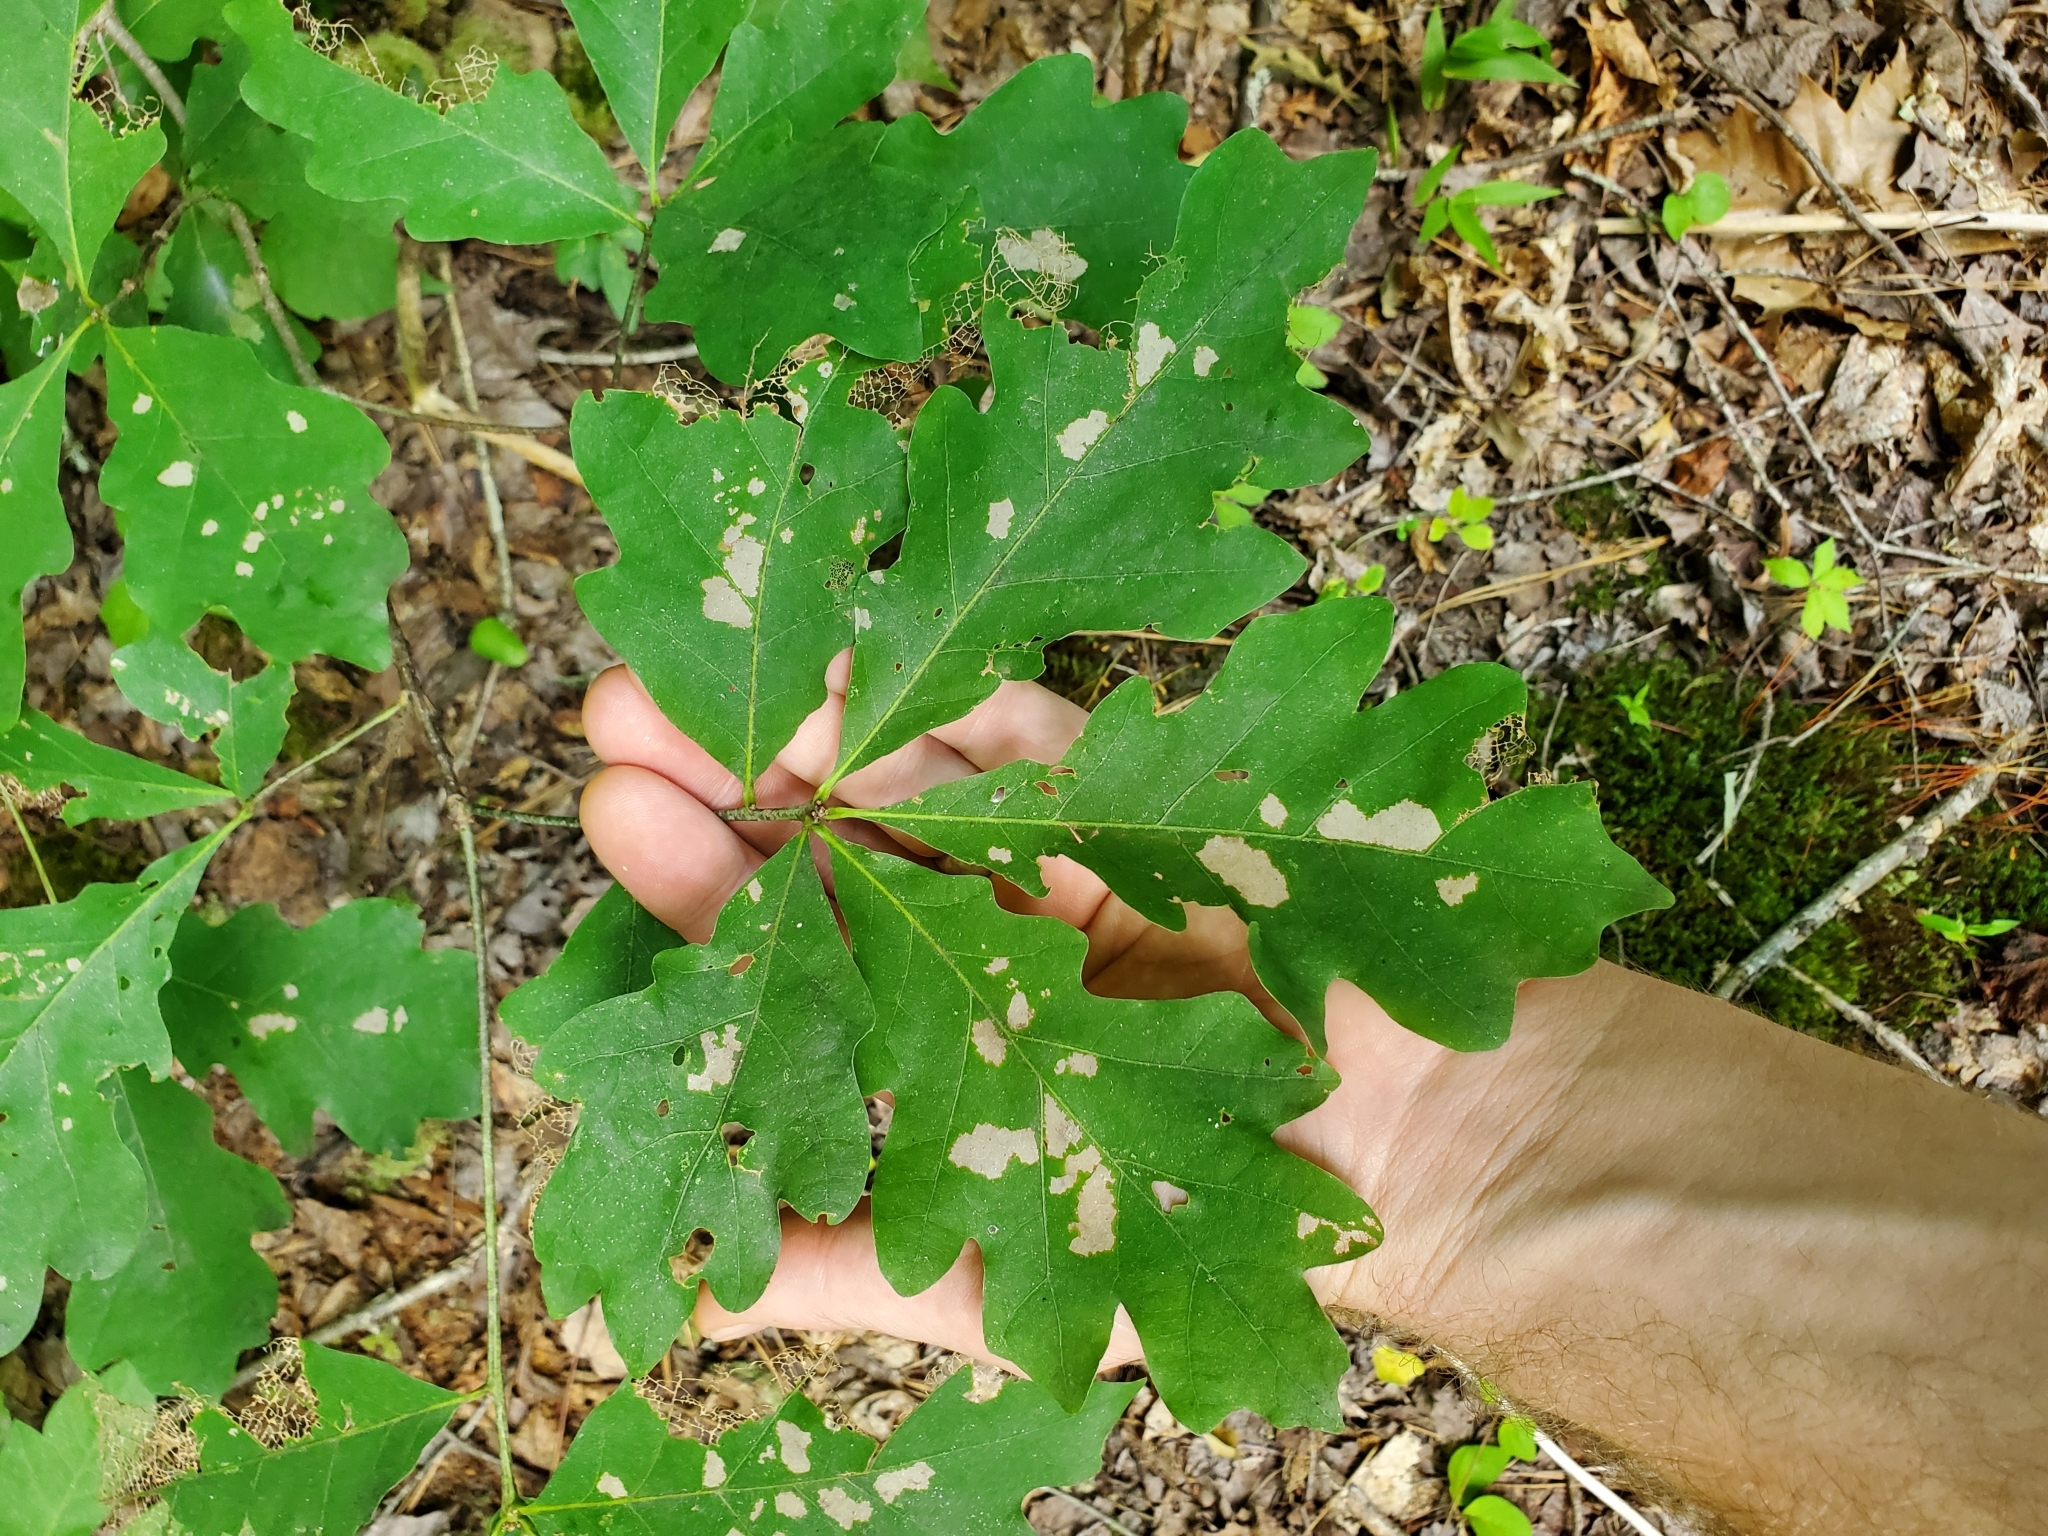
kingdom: Plantae
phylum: Tracheophyta
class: Magnoliopsida
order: Fagales
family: Fagaceae
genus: Quercus
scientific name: Quercus alba
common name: White oak
